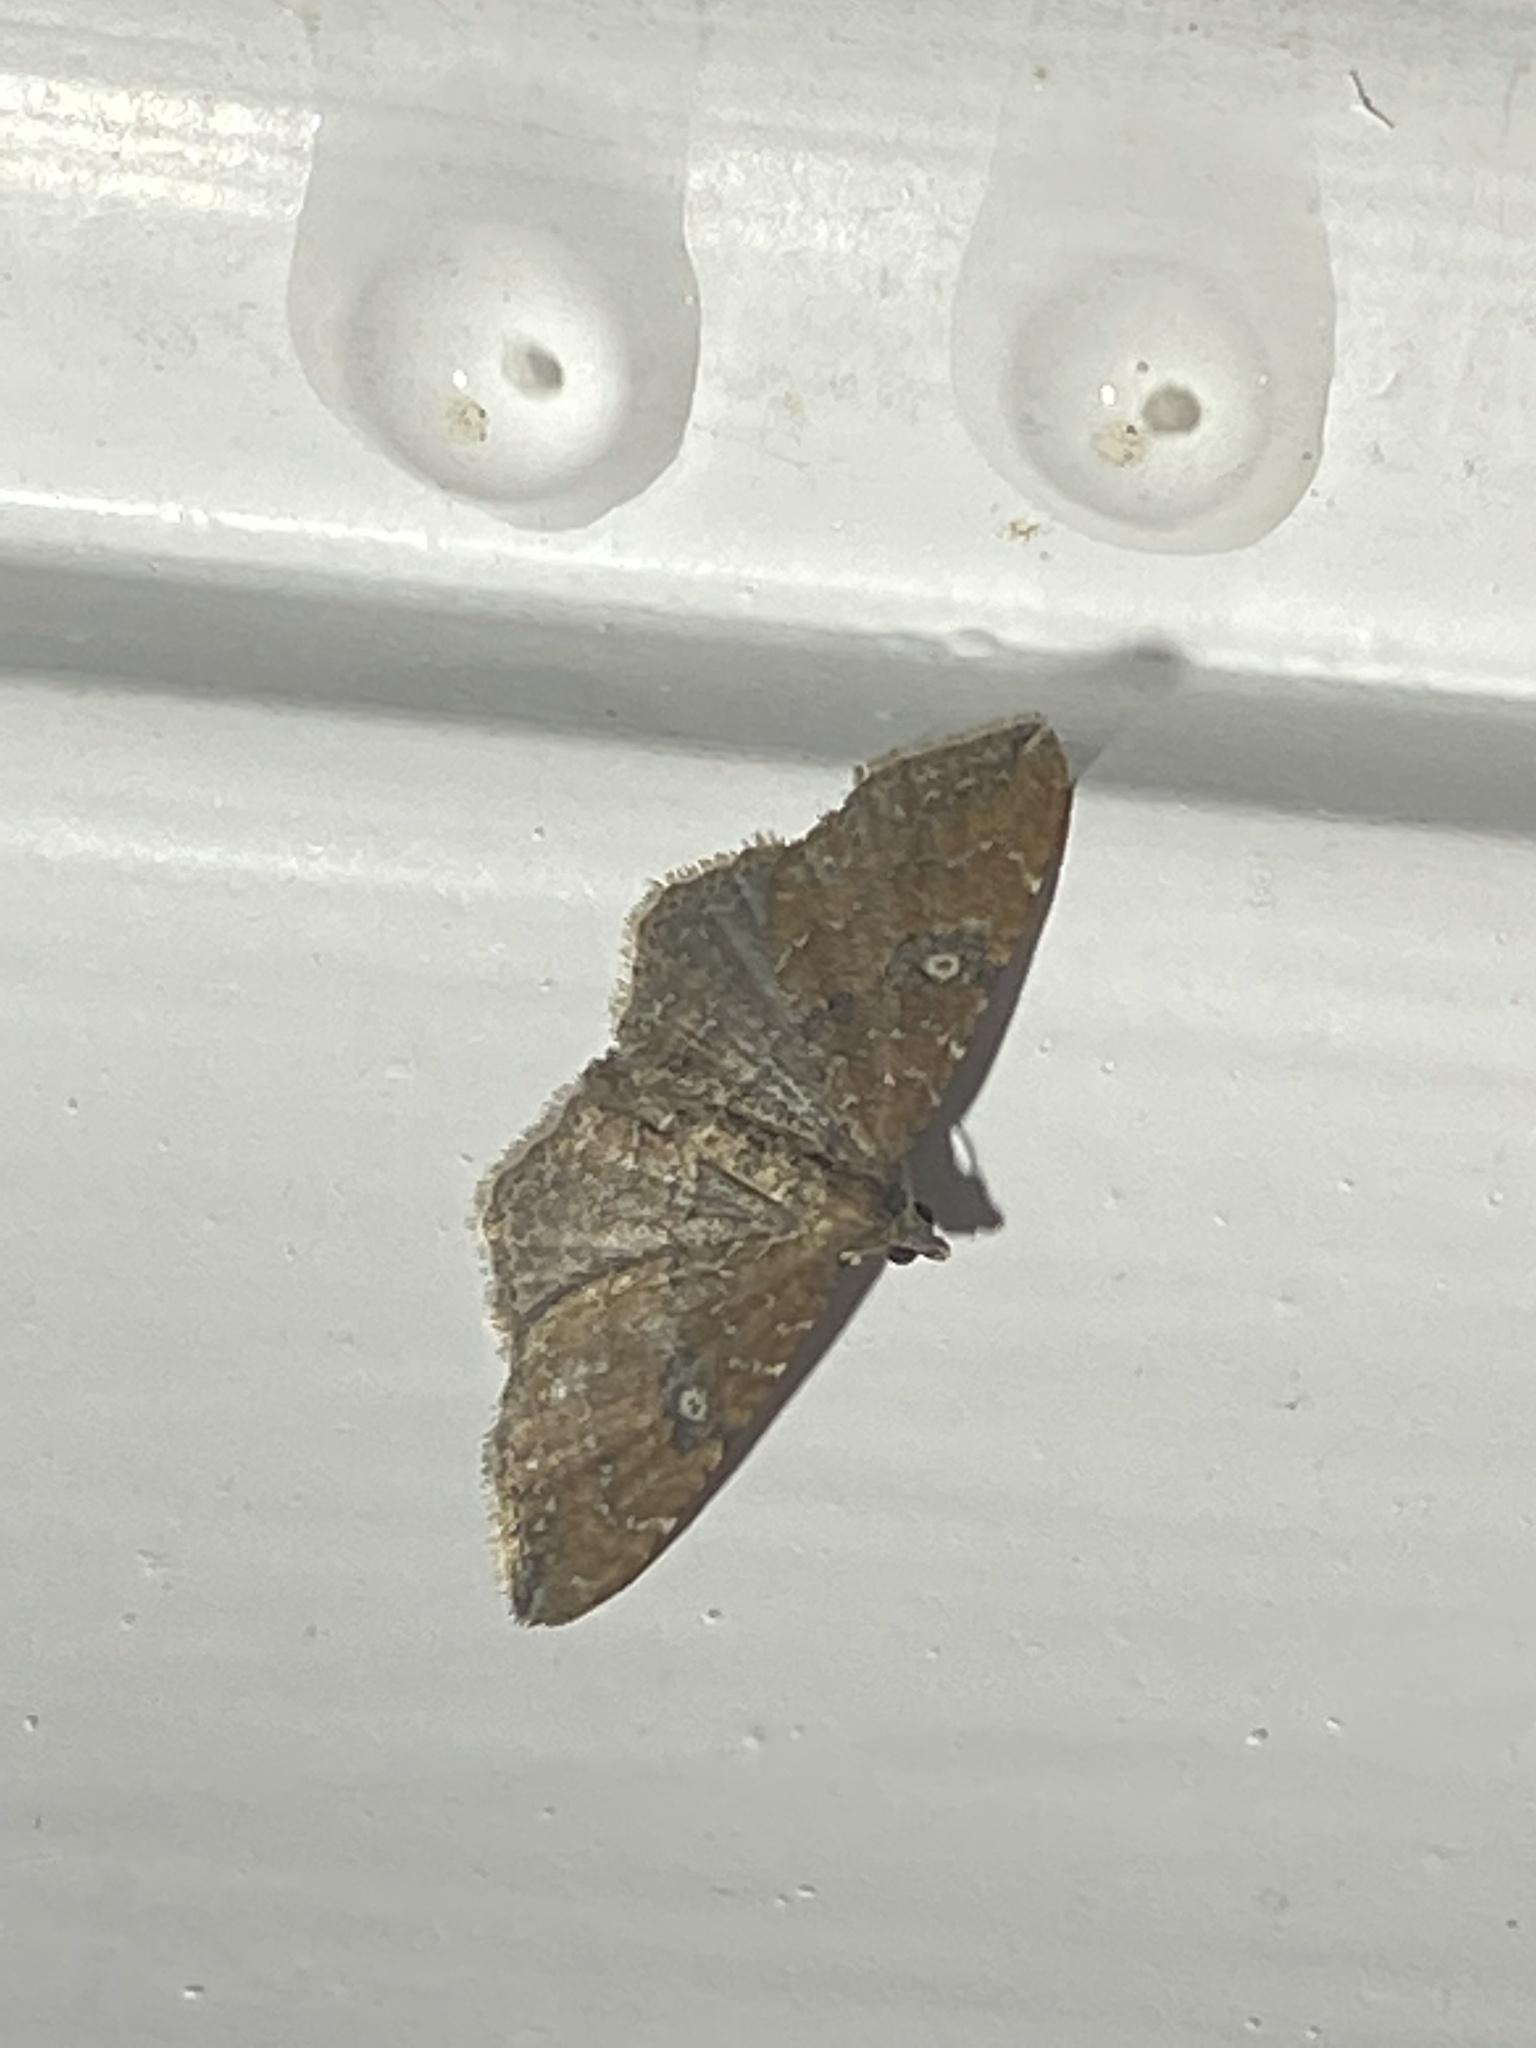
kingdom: Animalia
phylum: Arthropoda
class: Insecta
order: Lepidoptera
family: Geometridae
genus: Orthonama
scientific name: Orthonama obstipata
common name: The gem
